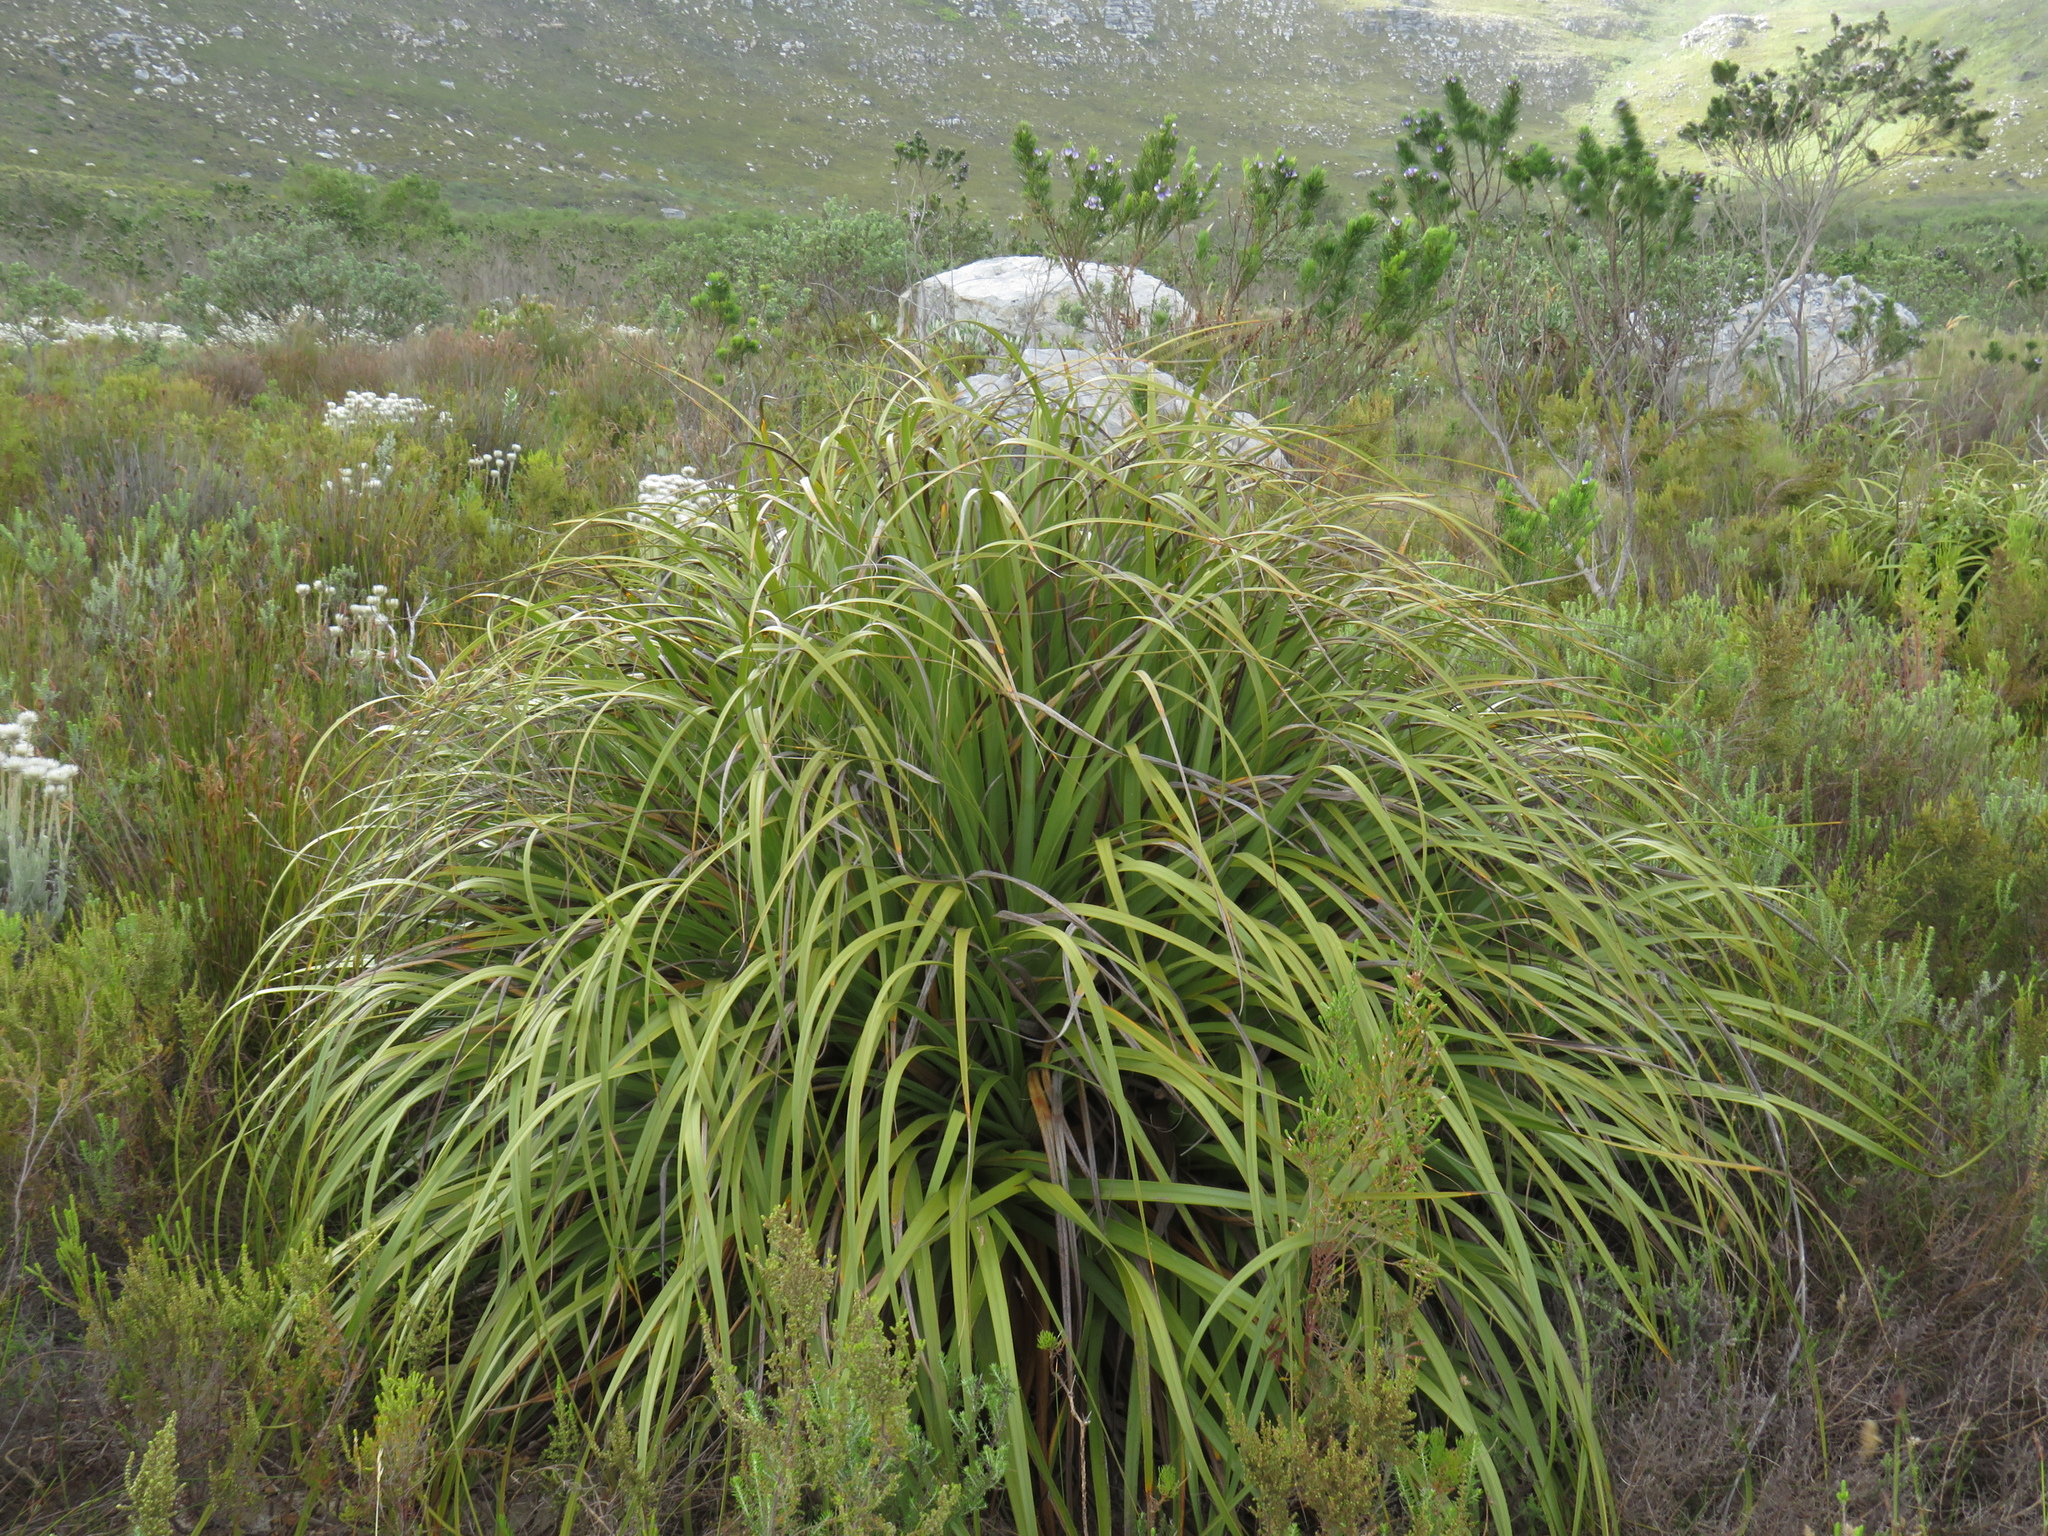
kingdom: Plantae
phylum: Tracheophyta
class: Liliopsida
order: Poales
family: Cyperaceae
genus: Tetraria
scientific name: Tetraria thermalis
